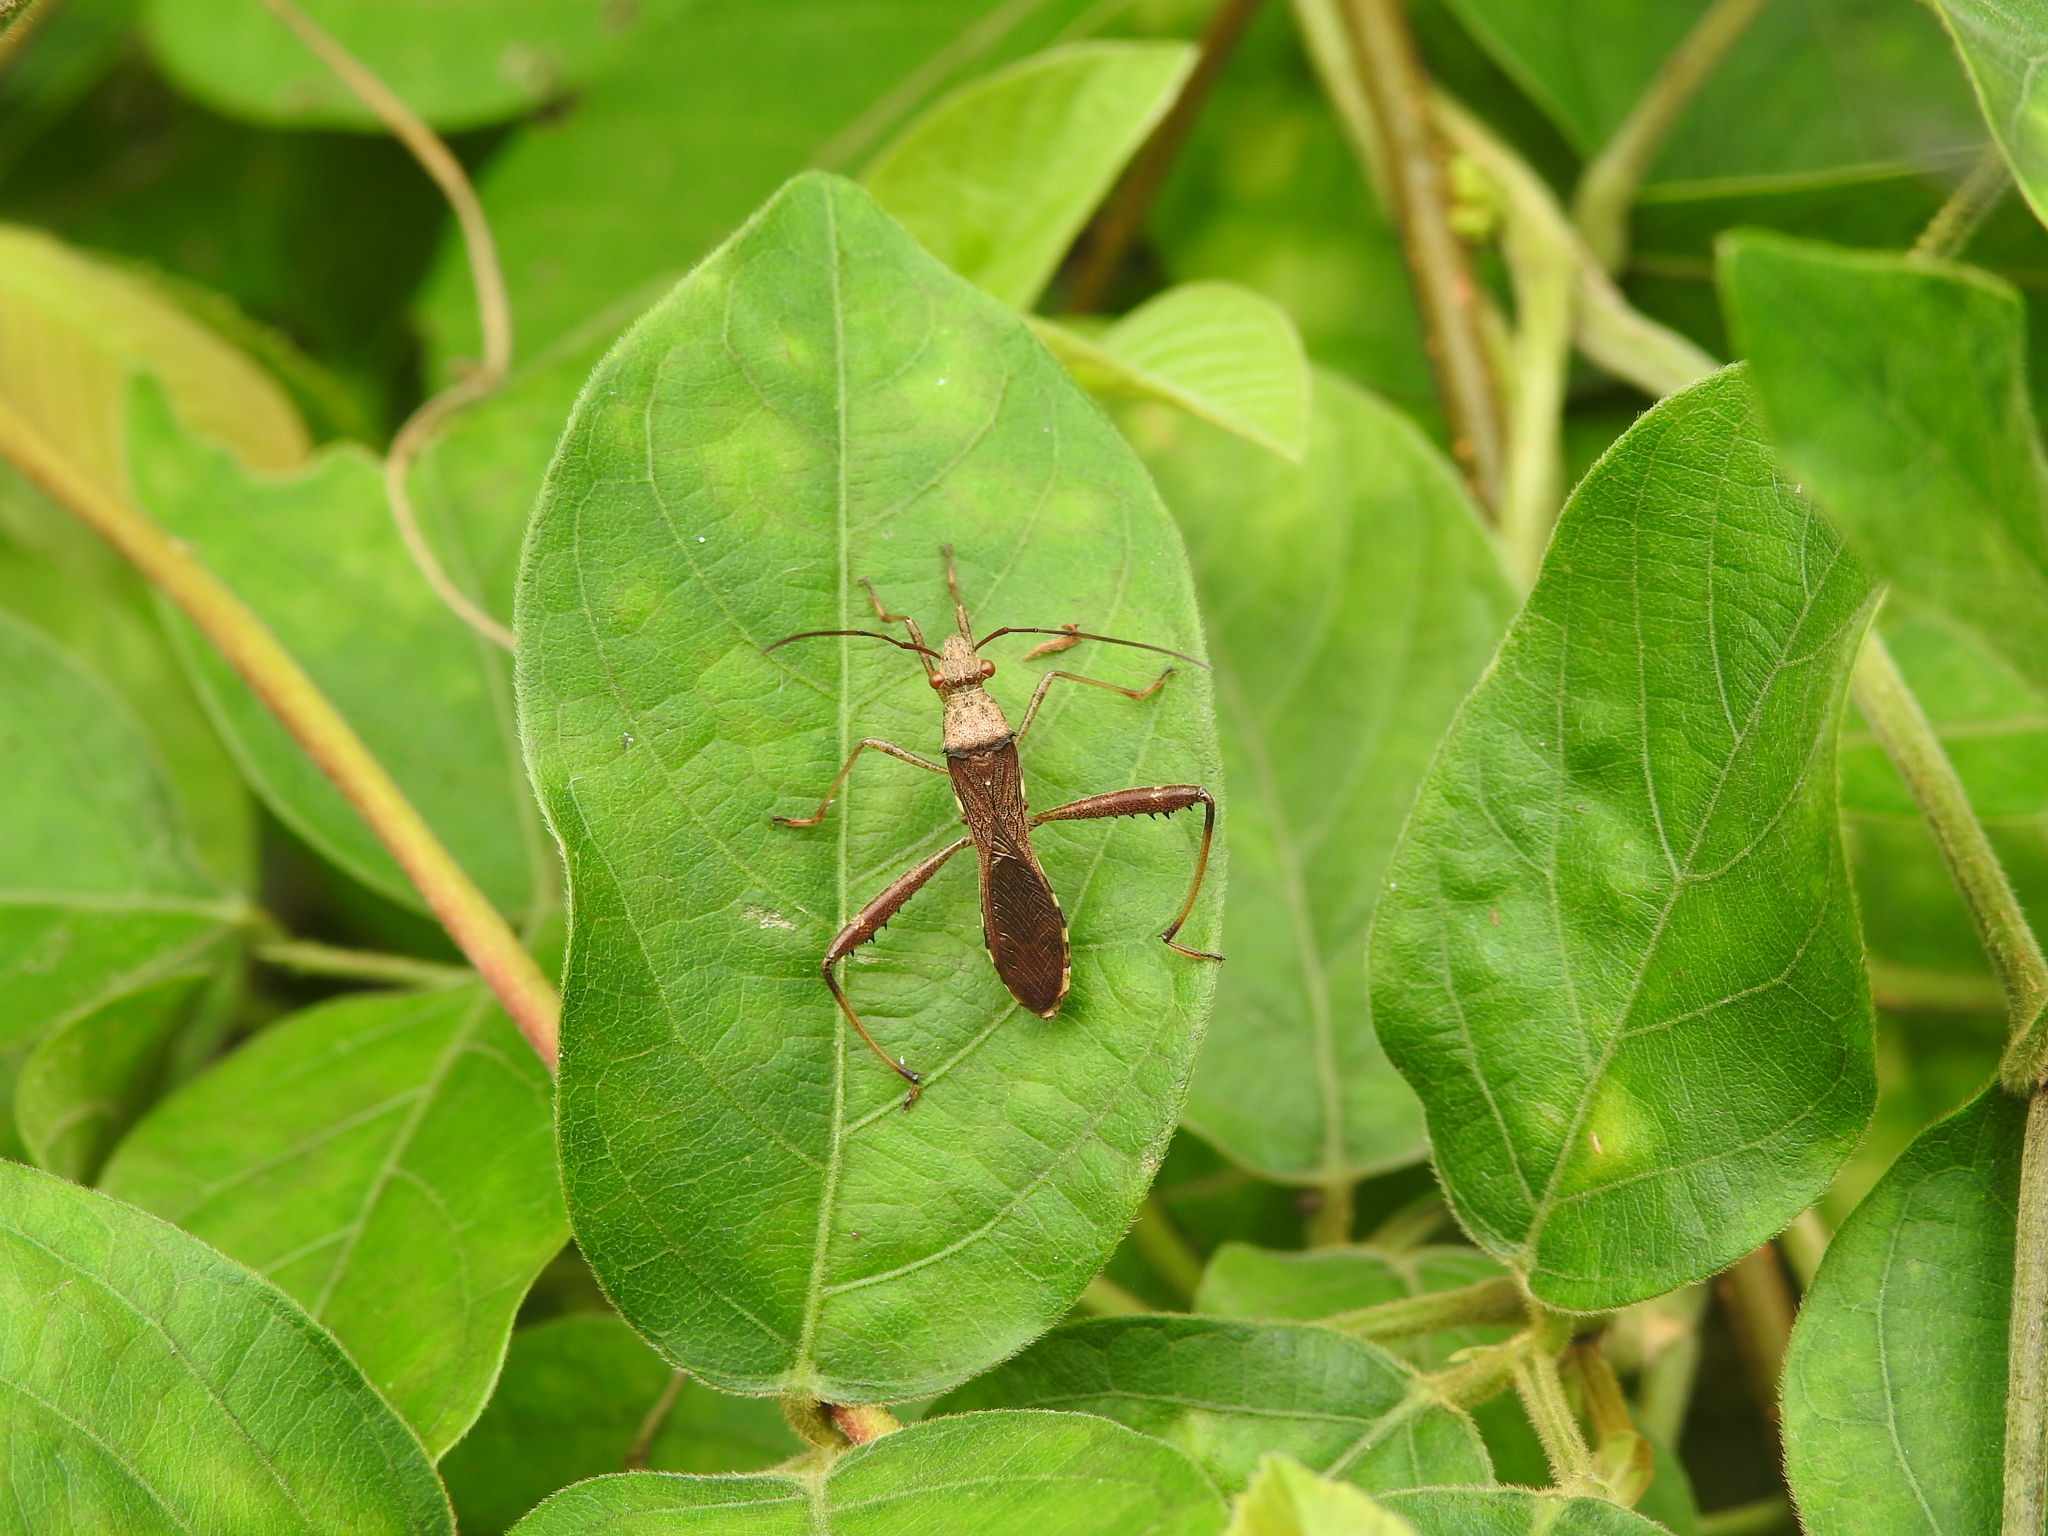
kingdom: Animalia
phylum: Arthropoda
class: Insecta
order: Hemiptera
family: Alydidae
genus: Riptortus
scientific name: Riptortus pedestris
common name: Bean bug
